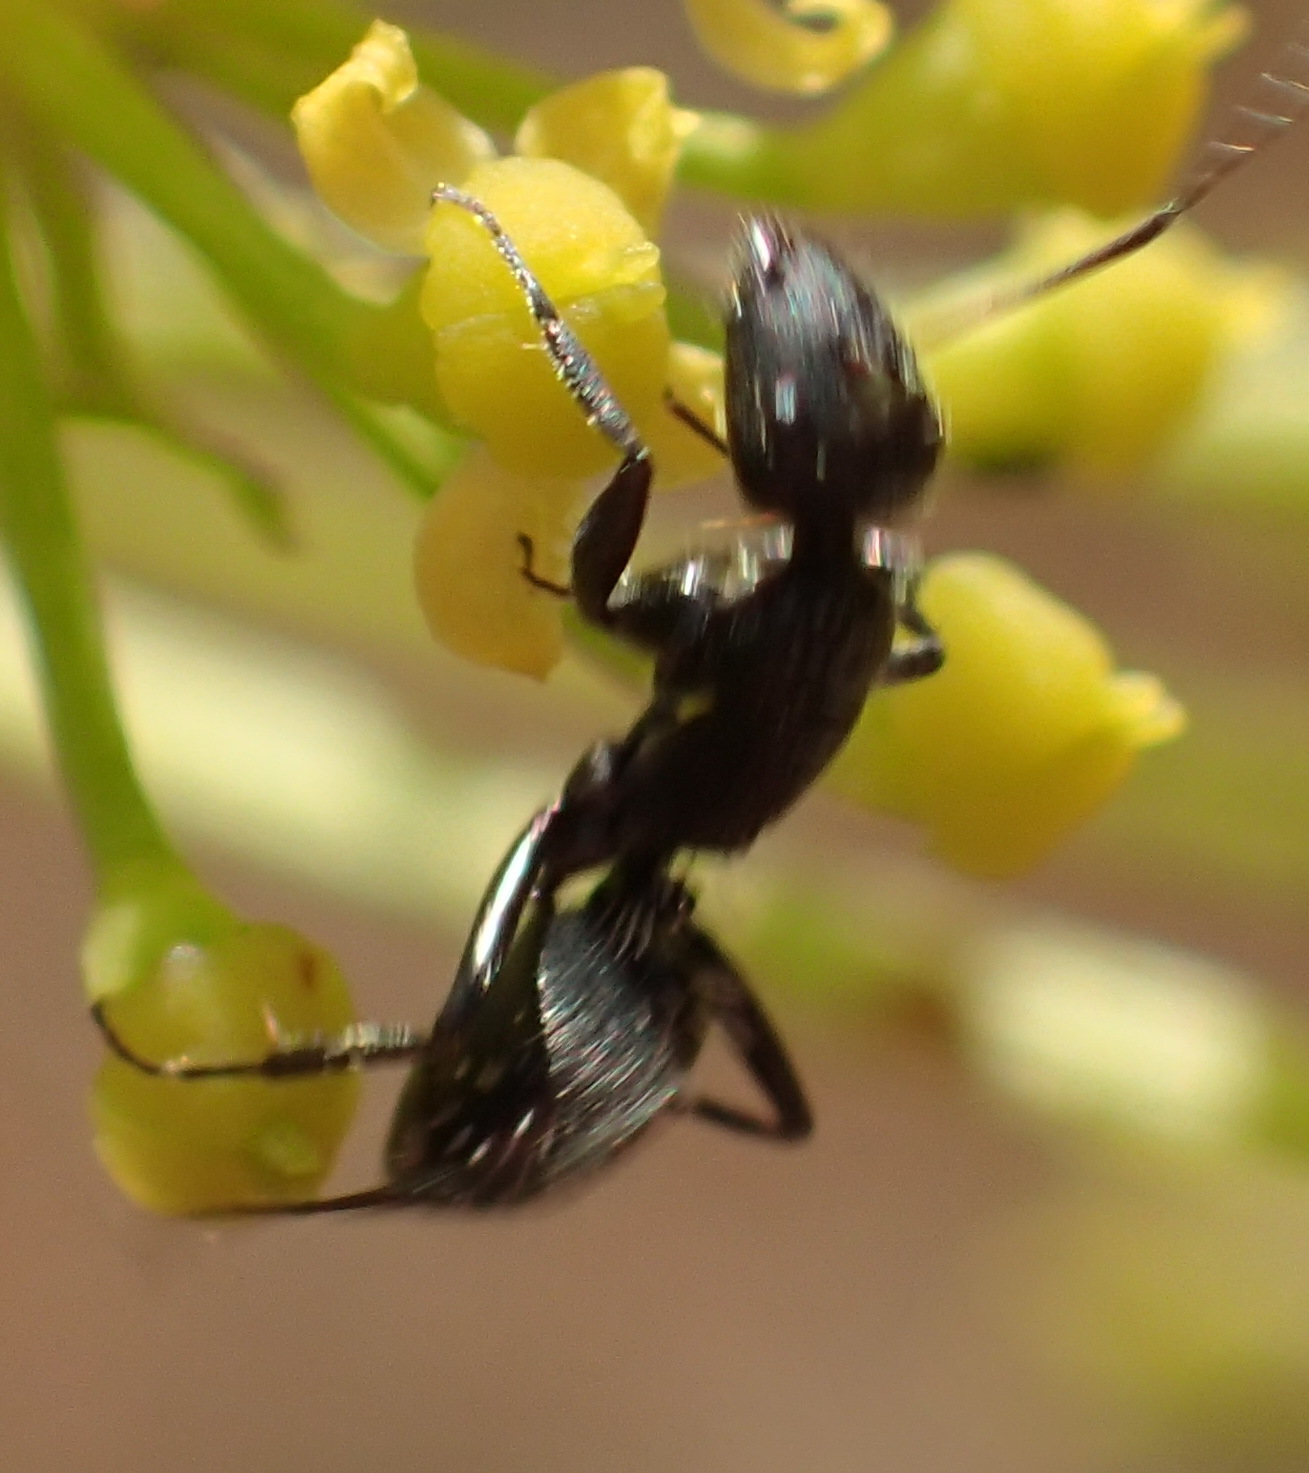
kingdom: Animalia
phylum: Arthropoda
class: Insecta
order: Hymenoptera
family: Formicidae
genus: Camponotus
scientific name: Camponotus niveosetosus
